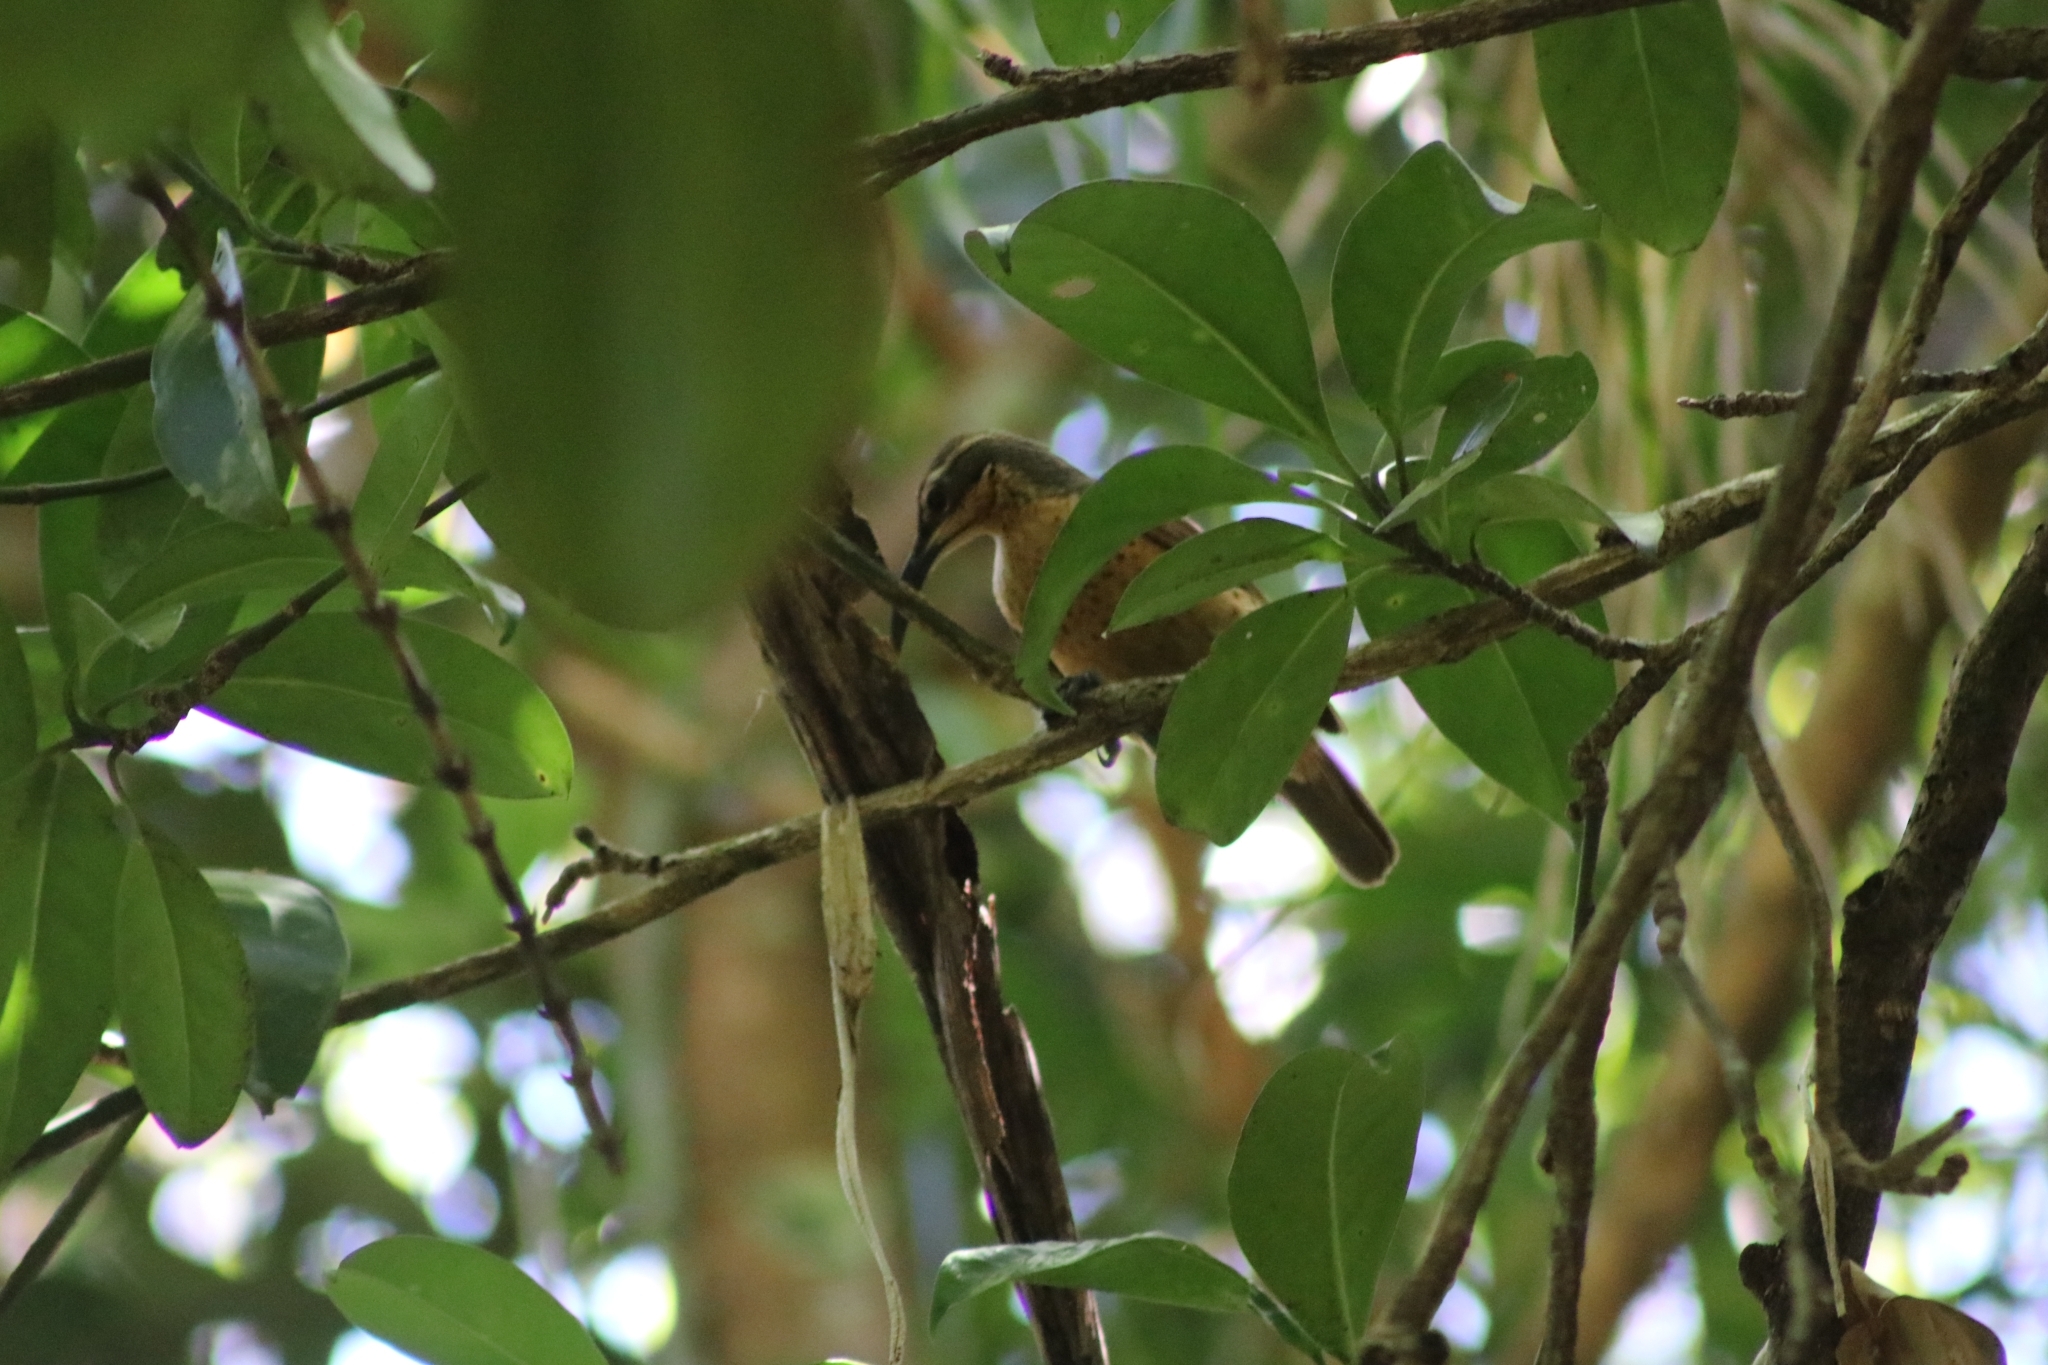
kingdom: Animalia
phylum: Chordata
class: Aves
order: Passeriformes
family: Paradisaeidae
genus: Ptiloris
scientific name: Ptiloris victoriae
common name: Victoria's riflebird
